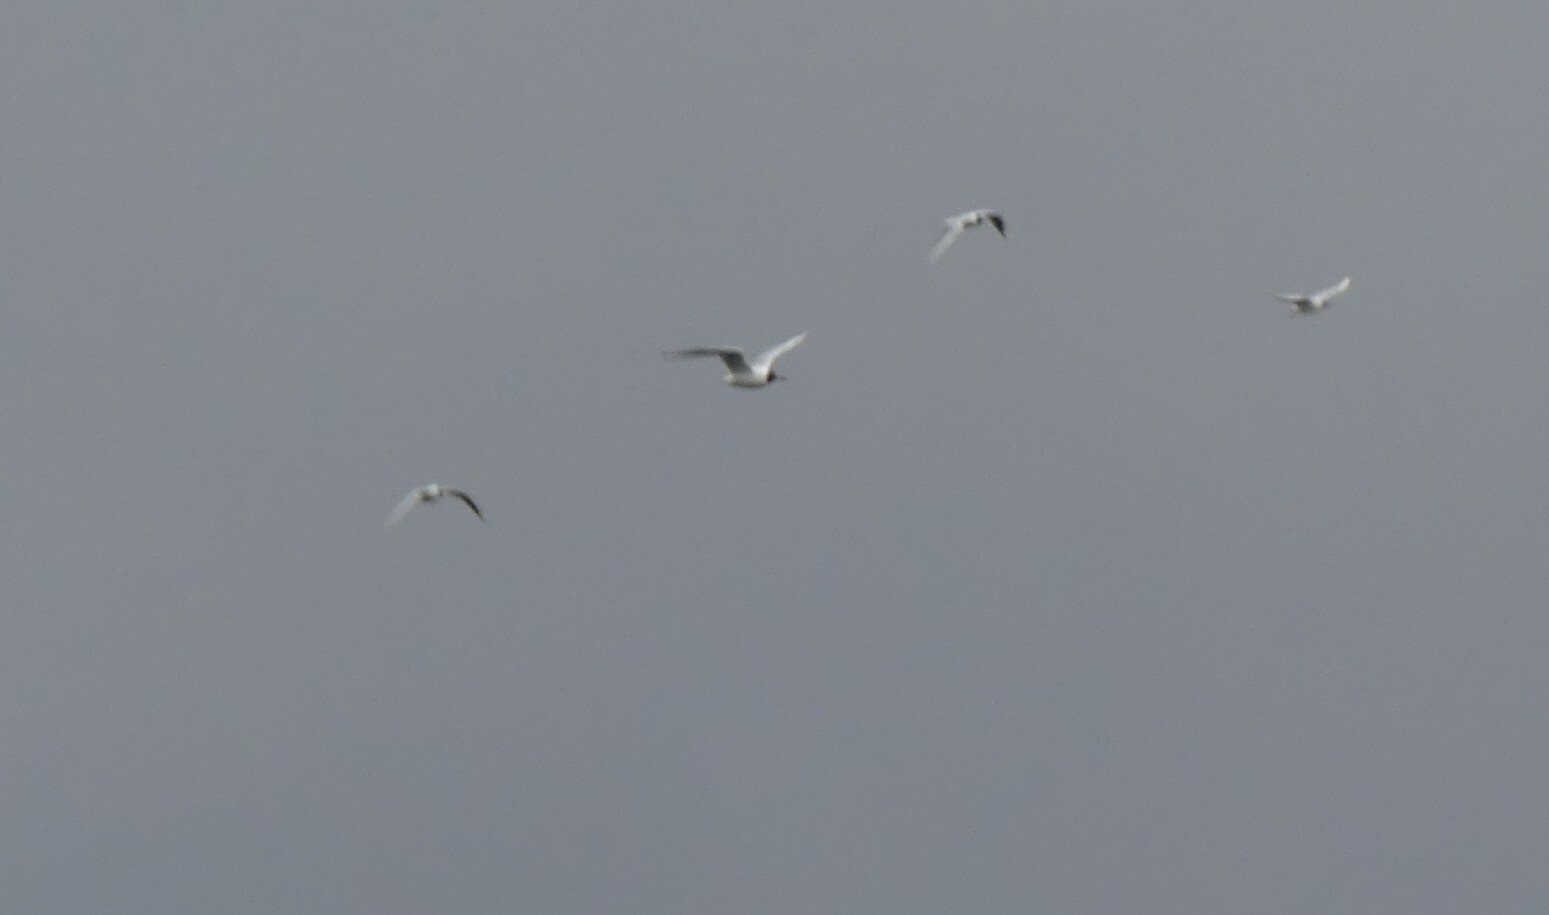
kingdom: Animalia
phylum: Chordata
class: Aves
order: Charadriiformes
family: Laridae
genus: Chroicocephalus
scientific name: Chroicocephalus ridibundus
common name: Black-headed gull
